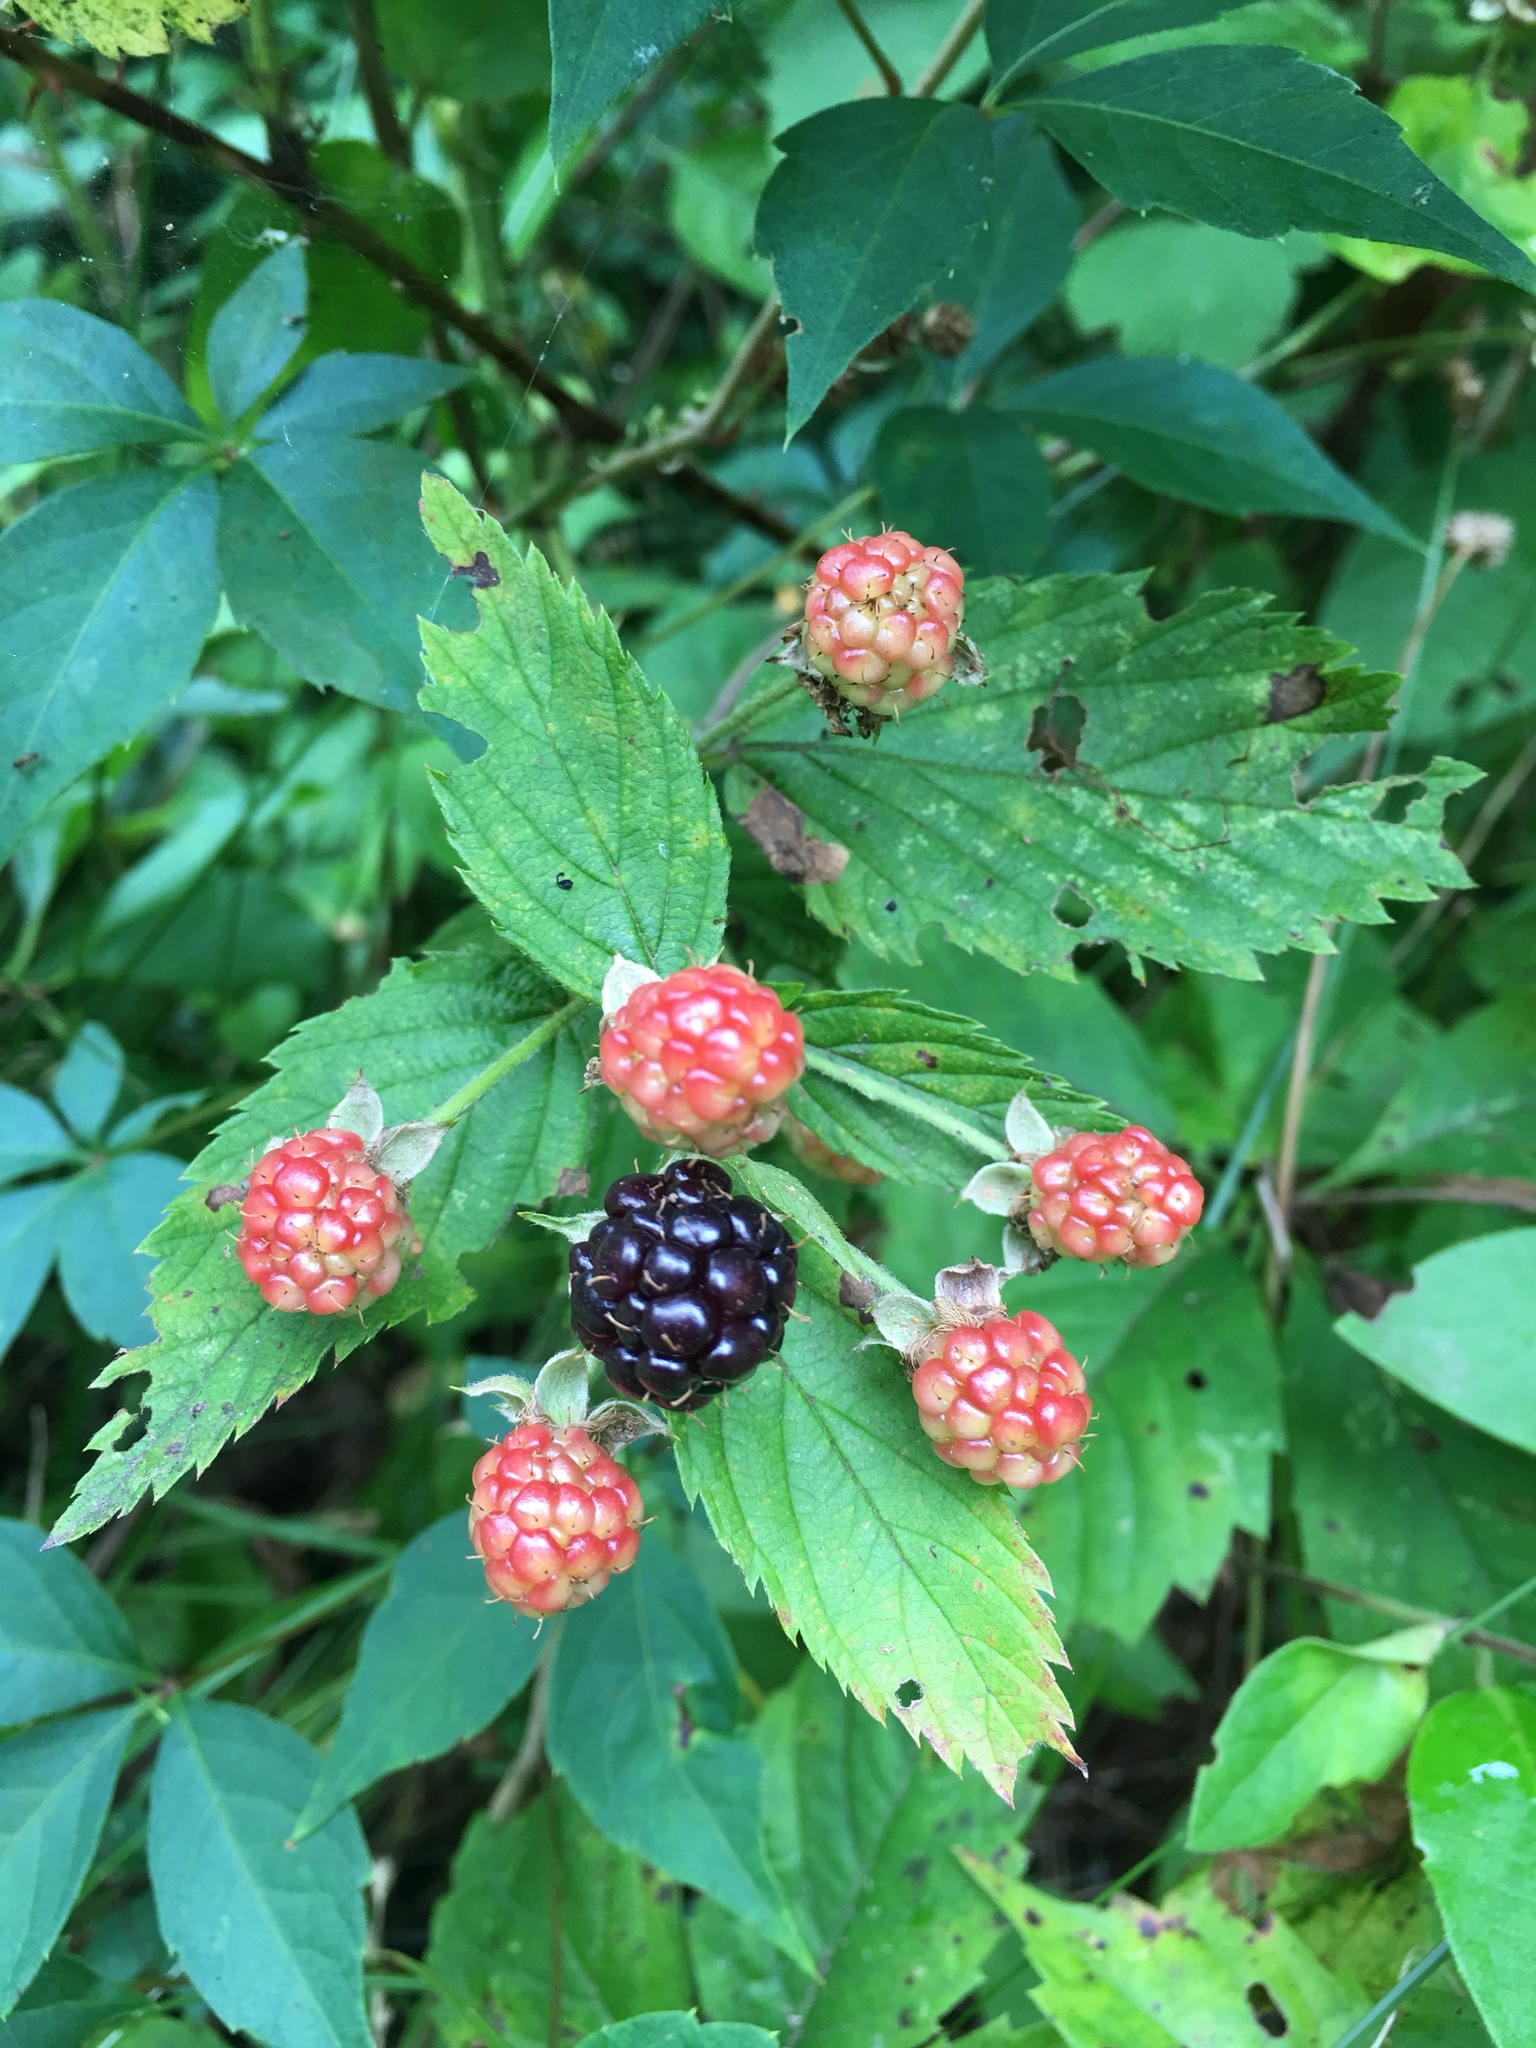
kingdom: Plantae
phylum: Tracheophyta
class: Magnoliopsida
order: Rosales
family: Rosaceae
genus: Rubus
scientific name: Rubus allegheniensis
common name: Allegheny blackberry
